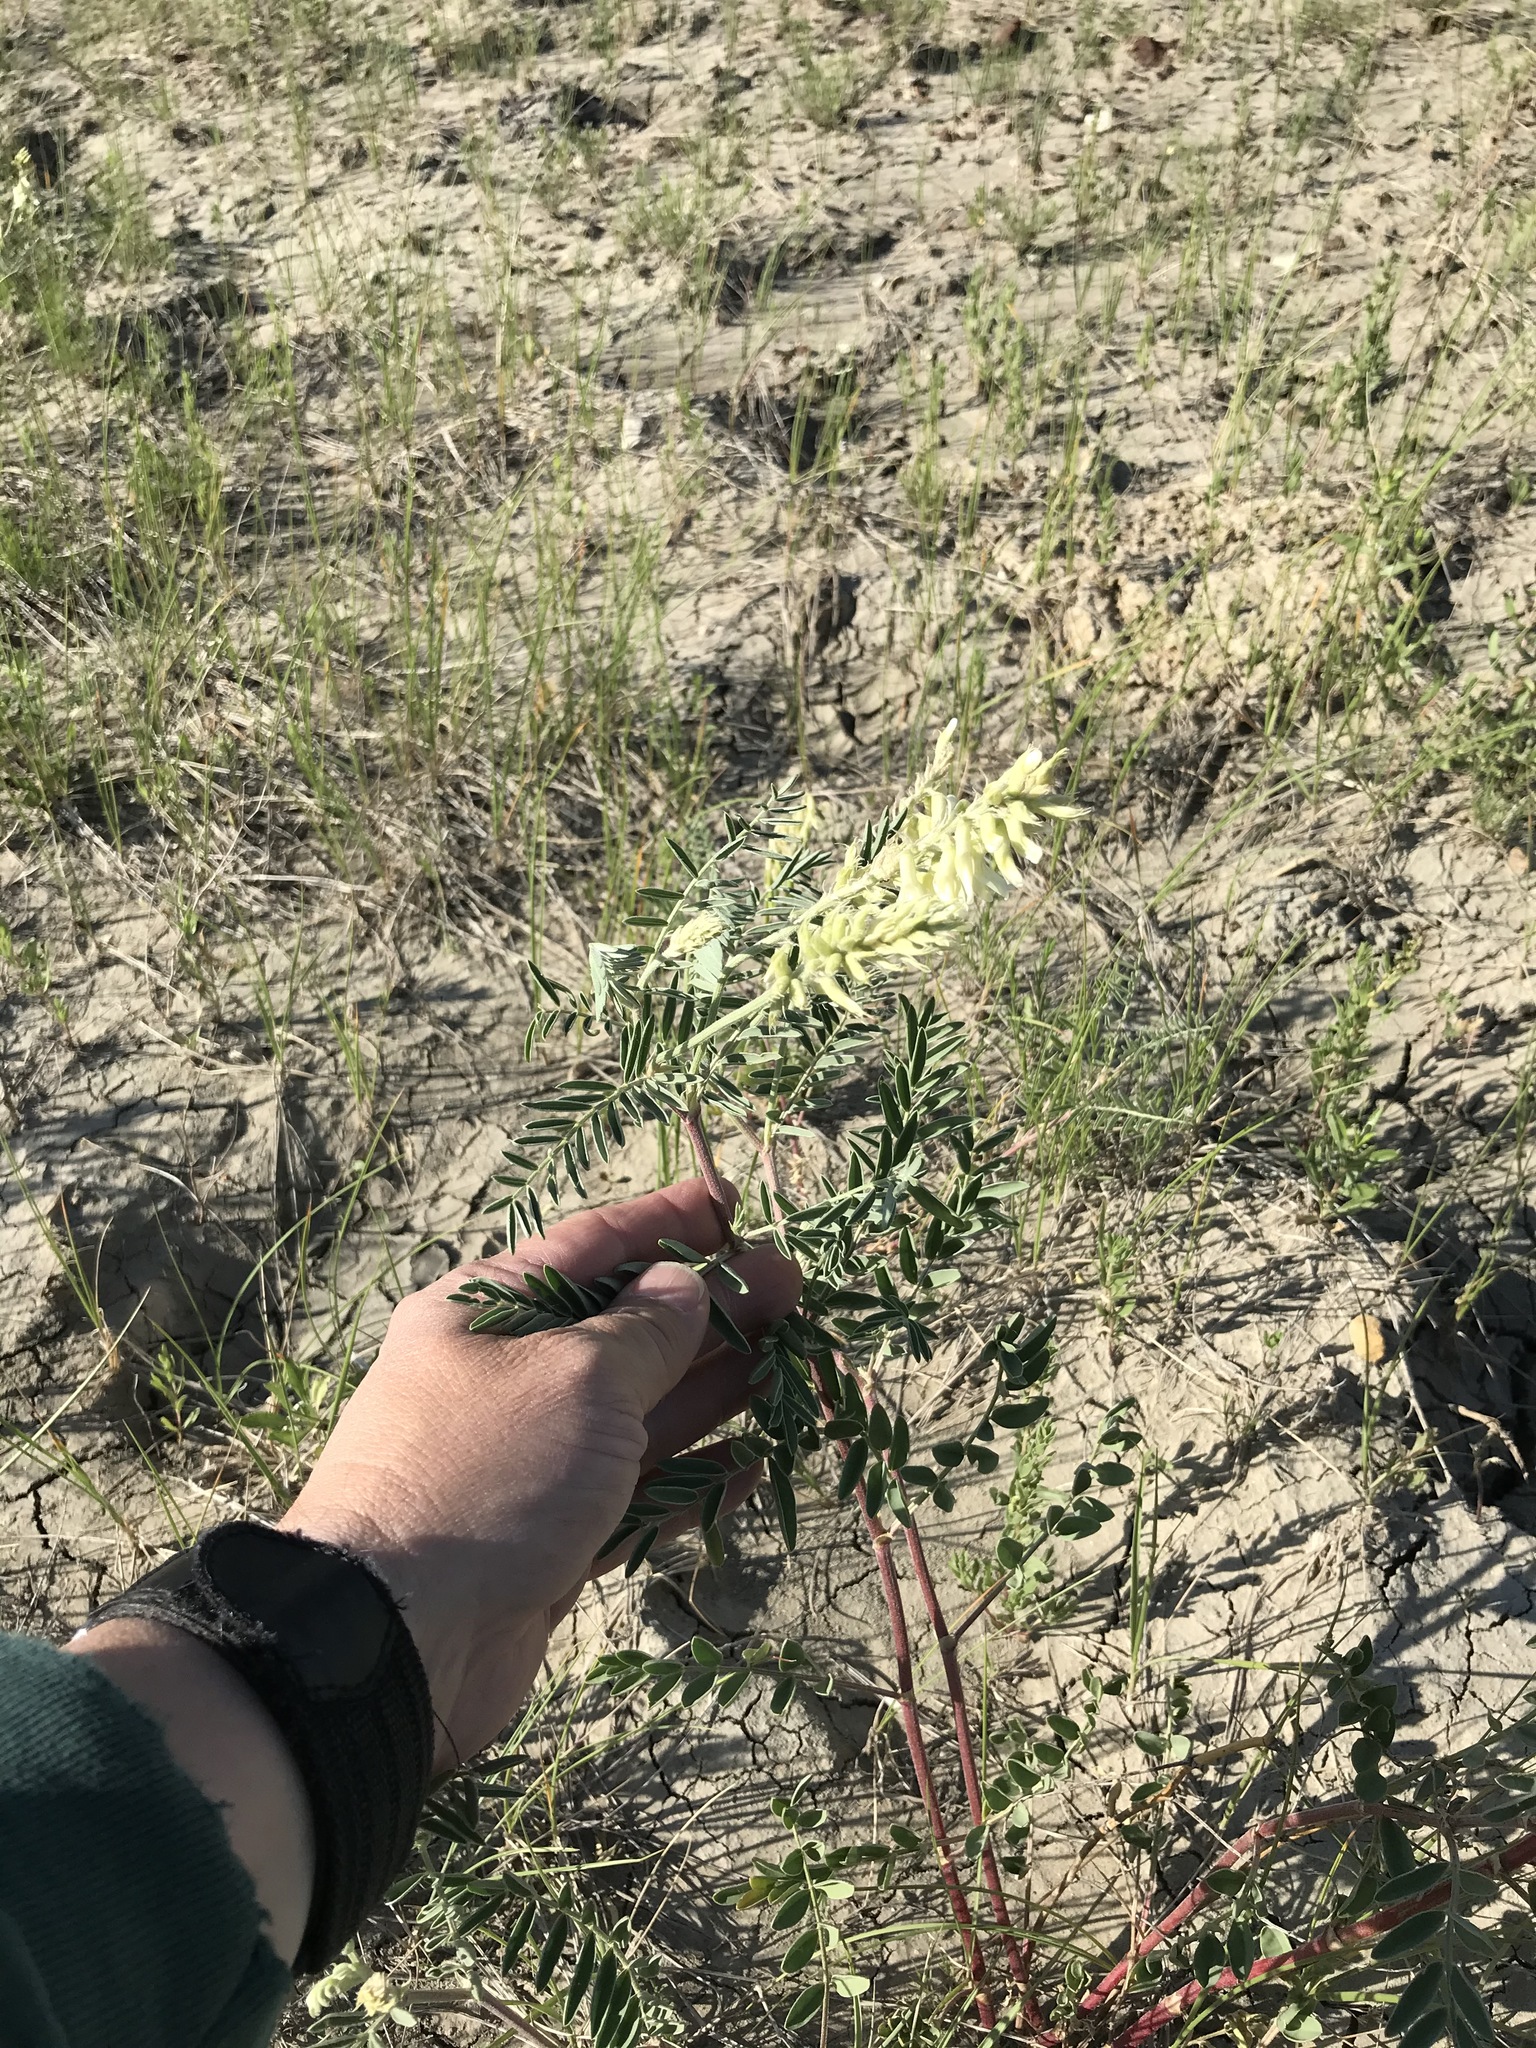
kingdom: Plantae
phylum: Tracheophyta
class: Magnoliopsida
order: Fabales
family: Fabaceae
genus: Astragalus
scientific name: Astragalus racemosus
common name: Alkali milk-vetch
